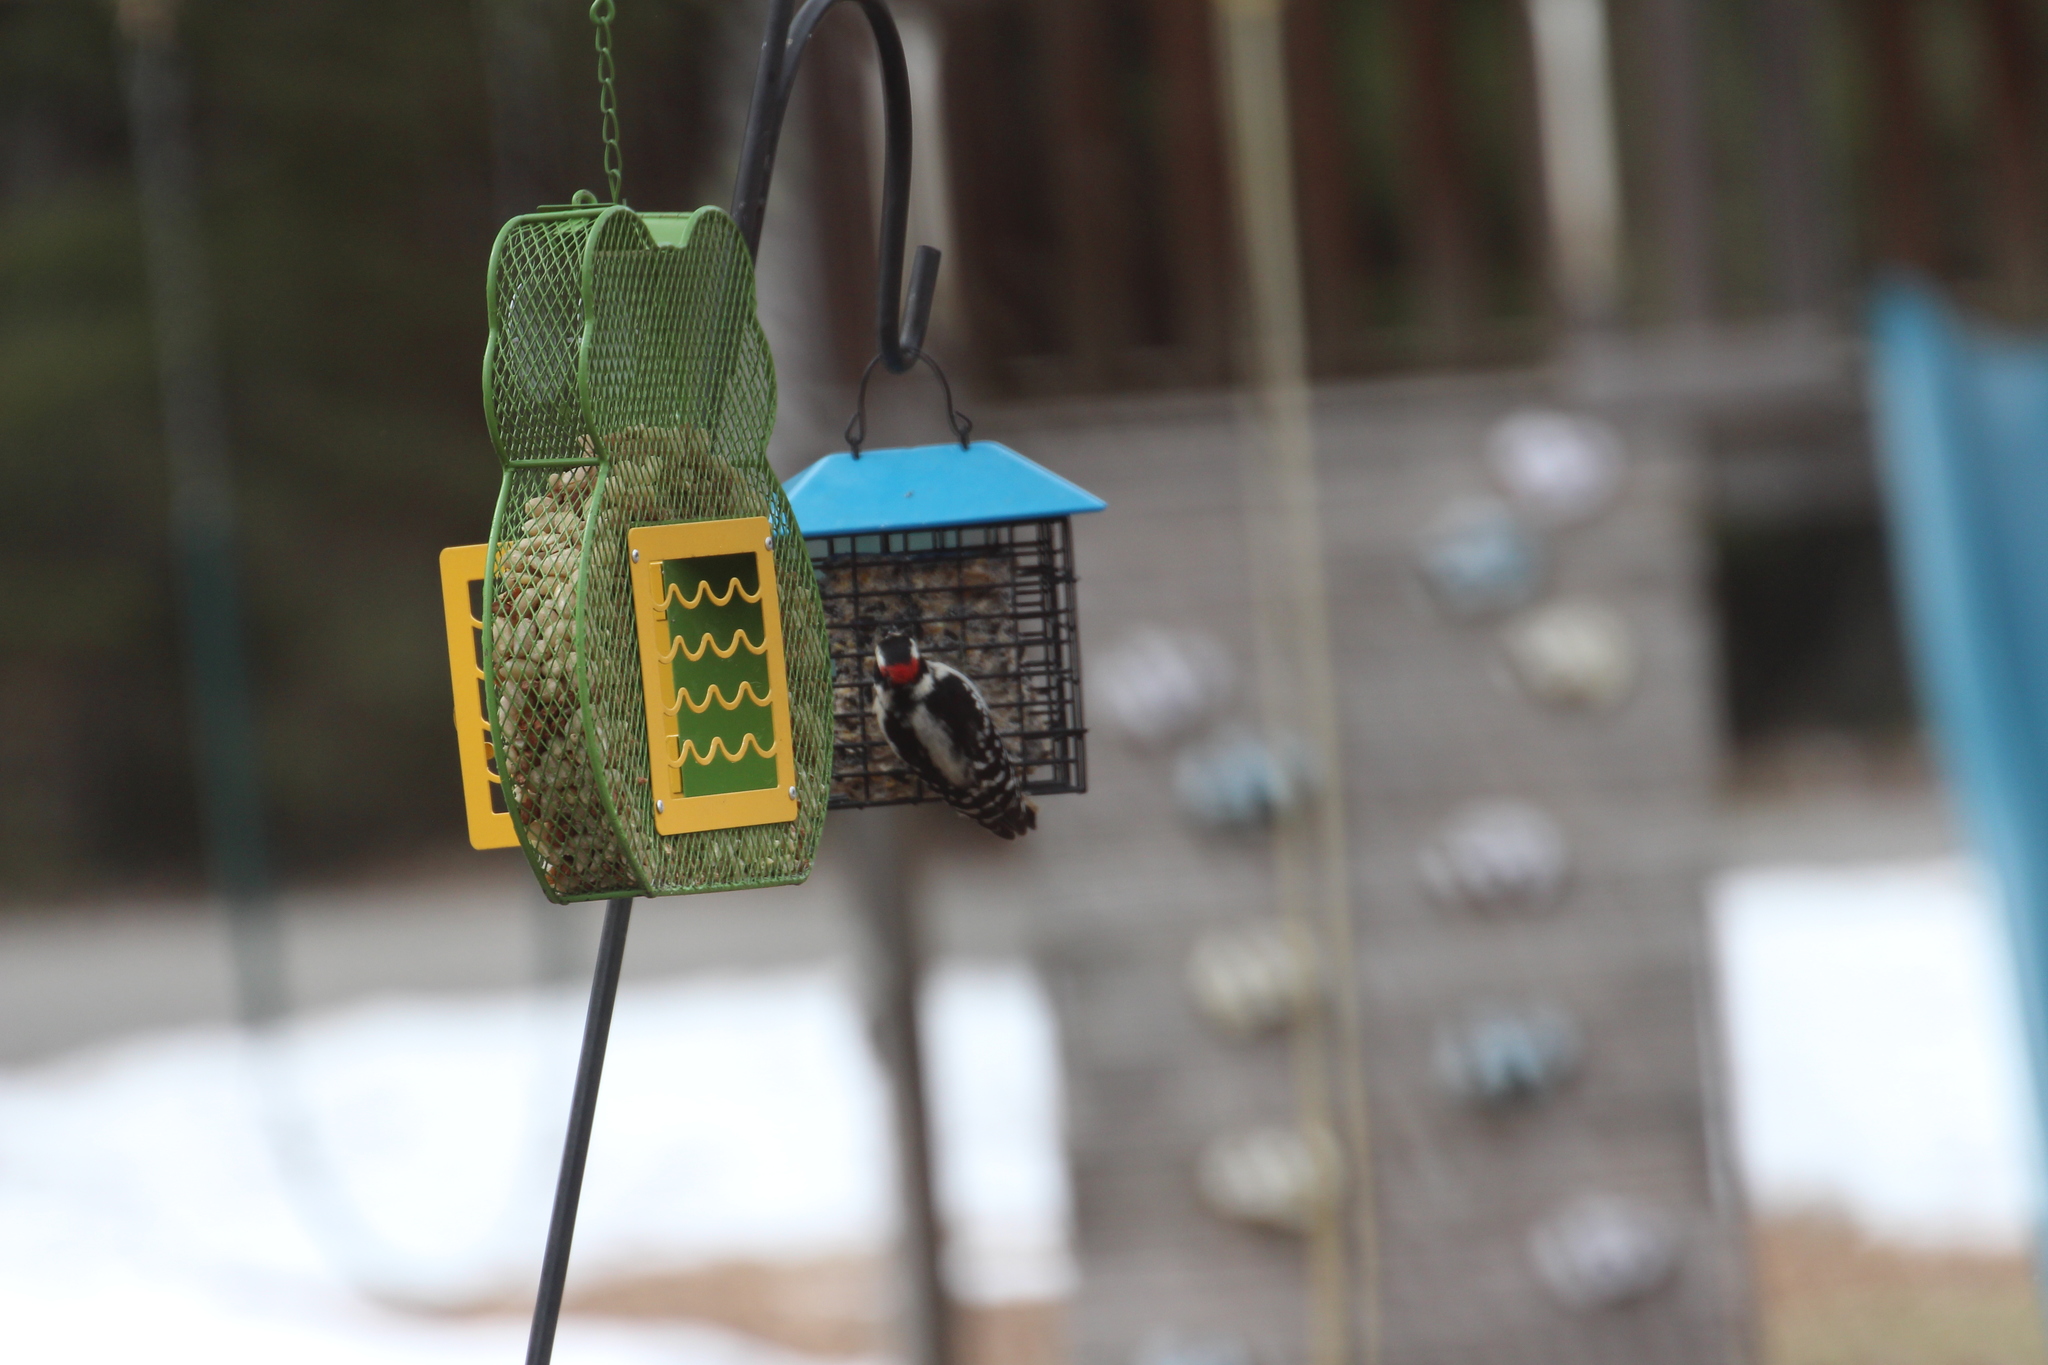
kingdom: Animalia
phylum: Chordata
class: Aves
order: Piciformes
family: Picidae
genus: Dryobates
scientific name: Dryobates pubescens
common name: Downy woodpecker
